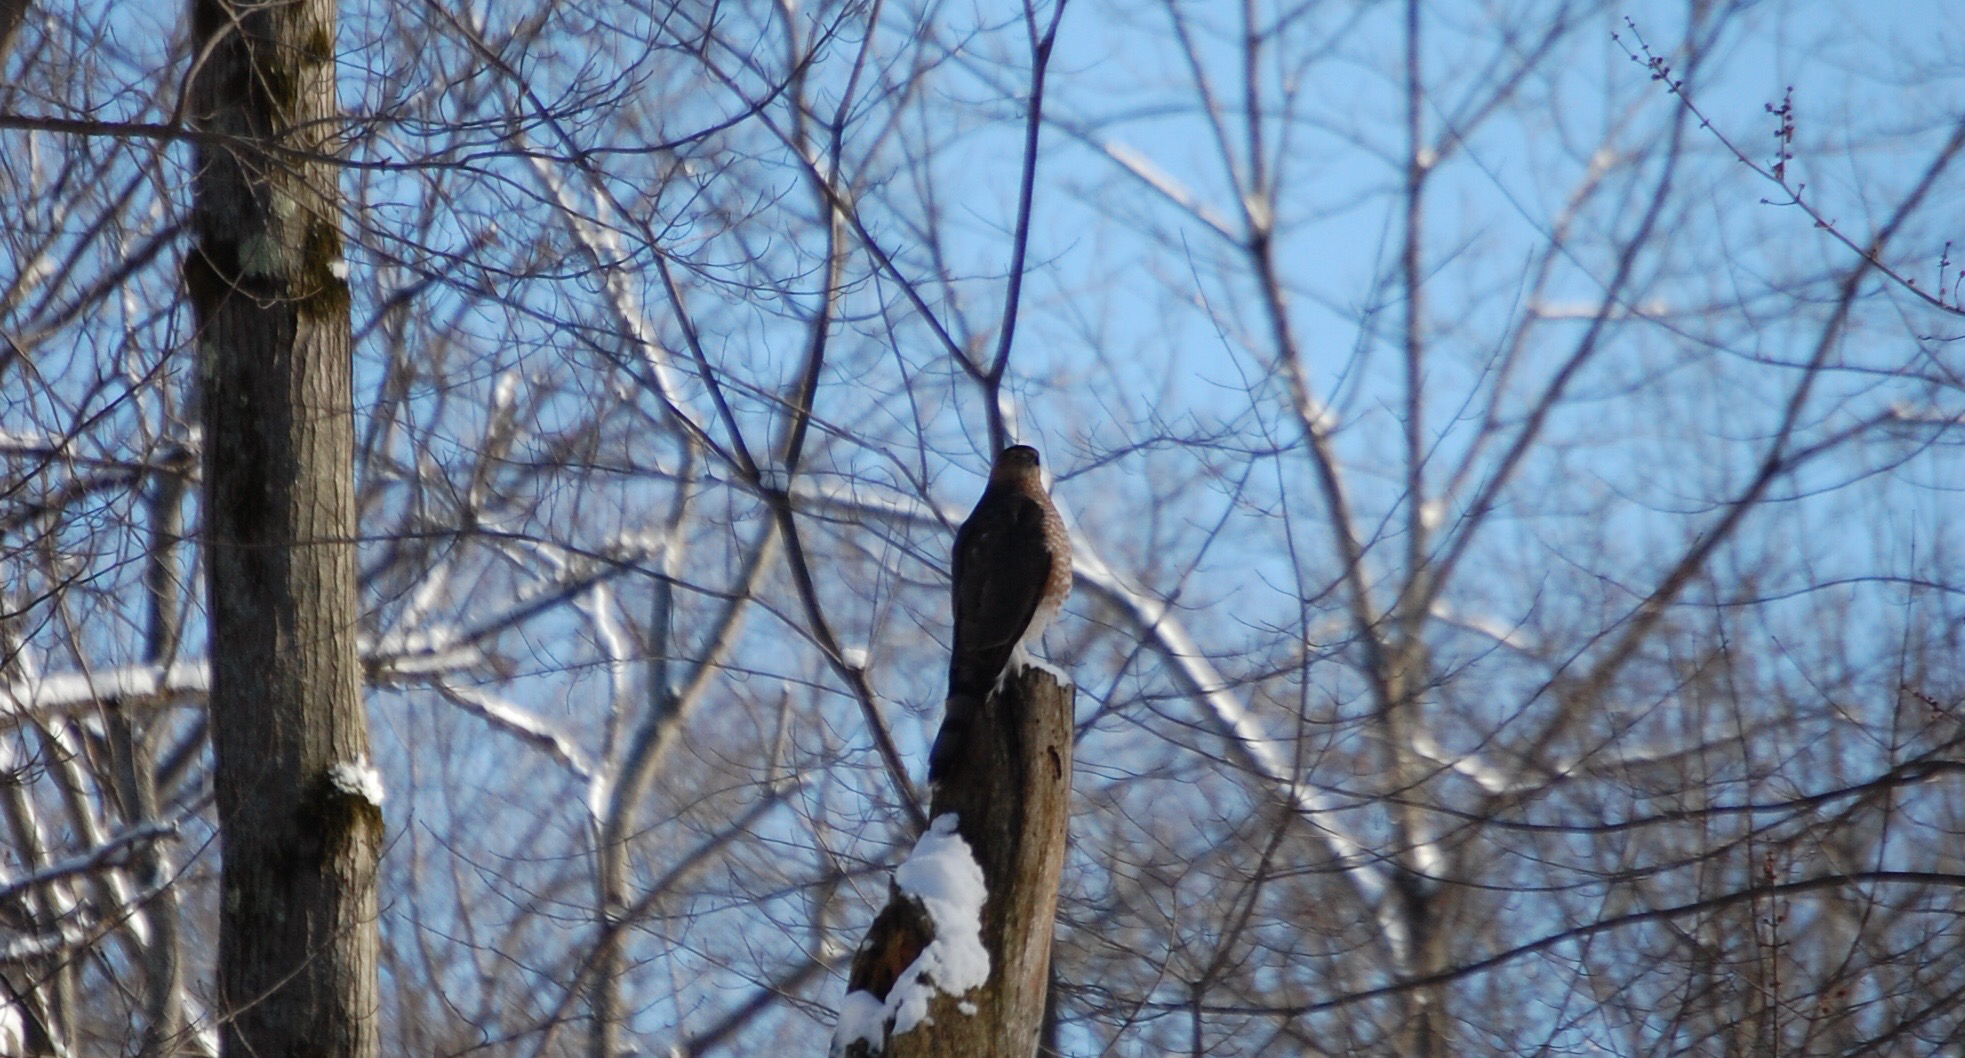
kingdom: Animalia
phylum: Chordata
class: Aves
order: Accipitriformes
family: Accipitridae
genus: Accipiter
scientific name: Accipiter cooperii
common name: Cooper's hawk
